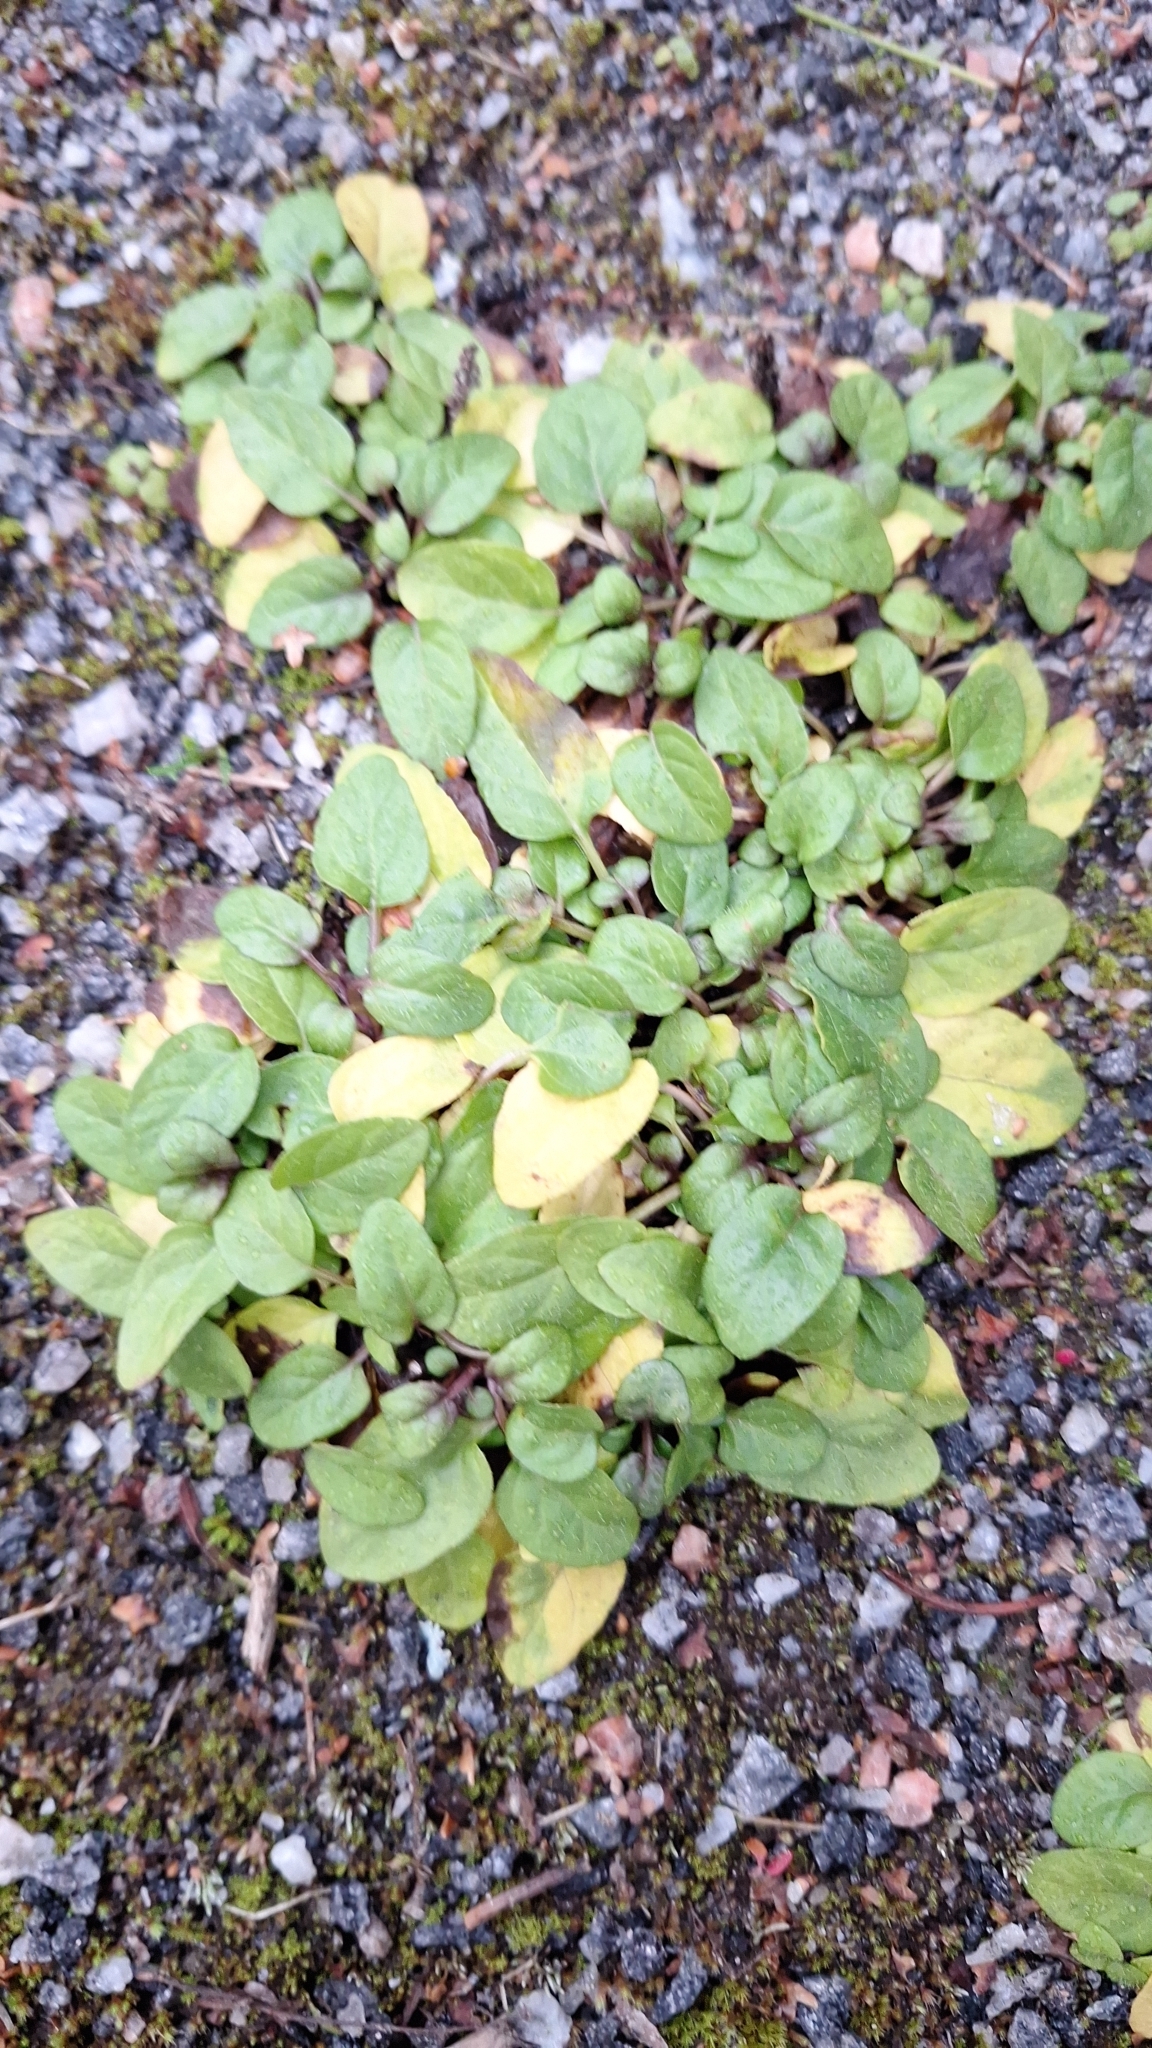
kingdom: Plantae
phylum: Tracheophyta
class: Magnoliopsida
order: Lamiales
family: Lamiaceae
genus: Prunella
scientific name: Prunella vulgaris
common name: Heal-all
